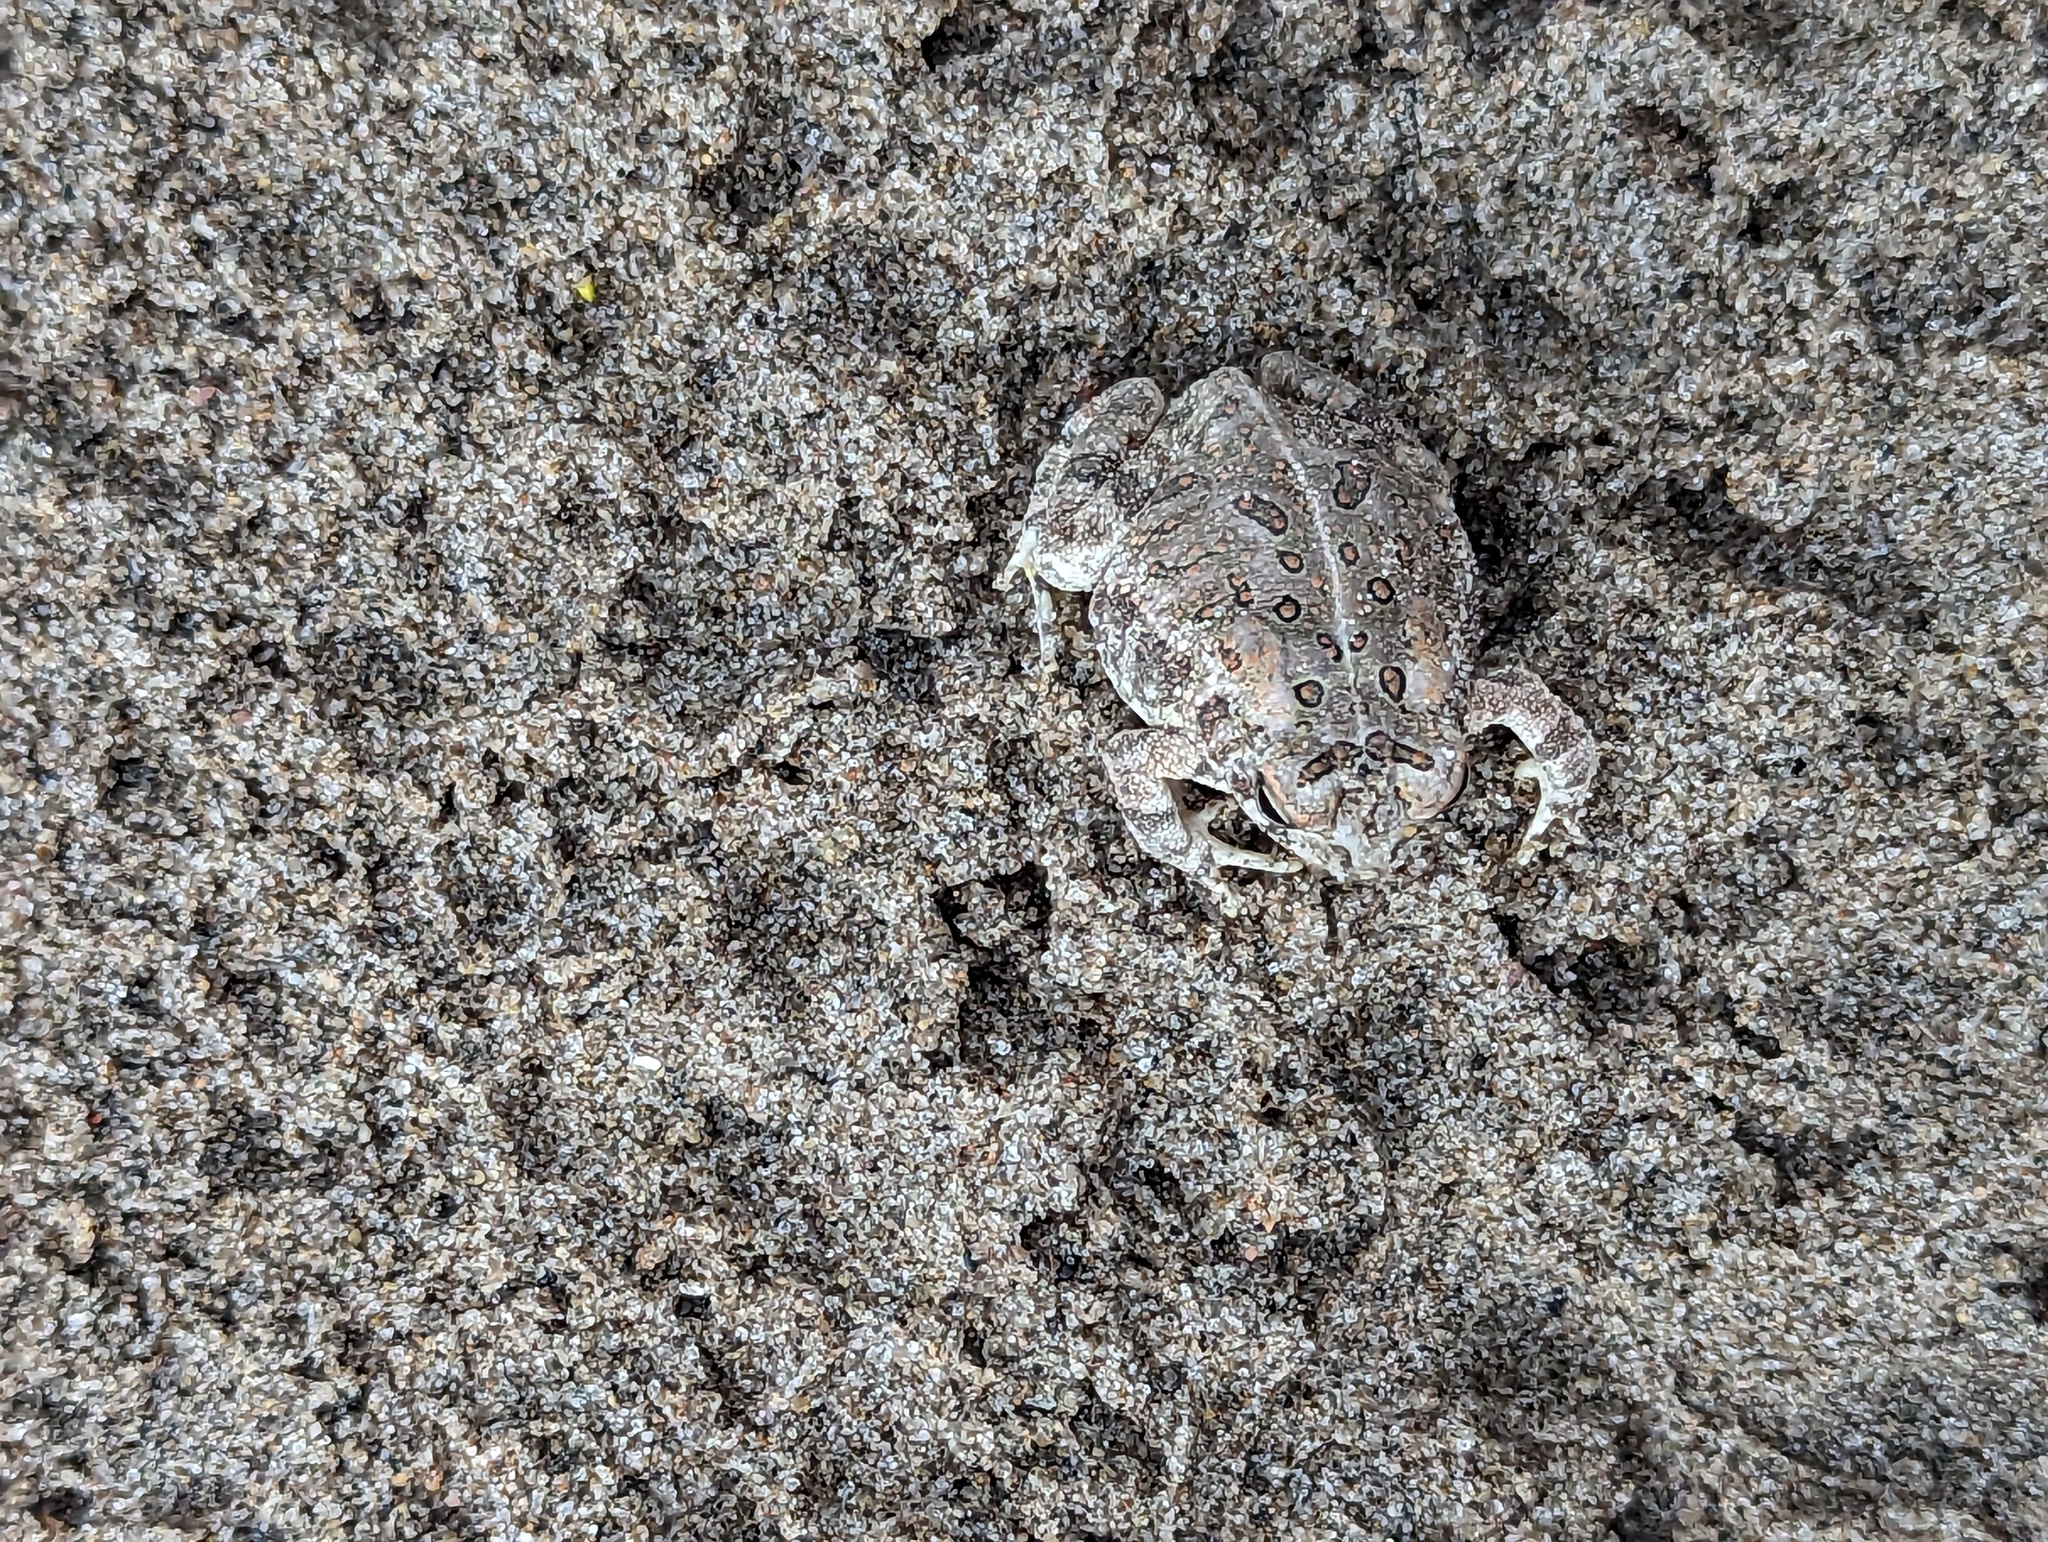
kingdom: Animalia
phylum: Chordata
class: Amphibia
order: Anura
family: Bufonidae
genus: Anaxyrus
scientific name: Anaxyrus fowleri
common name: Fowler's toad
